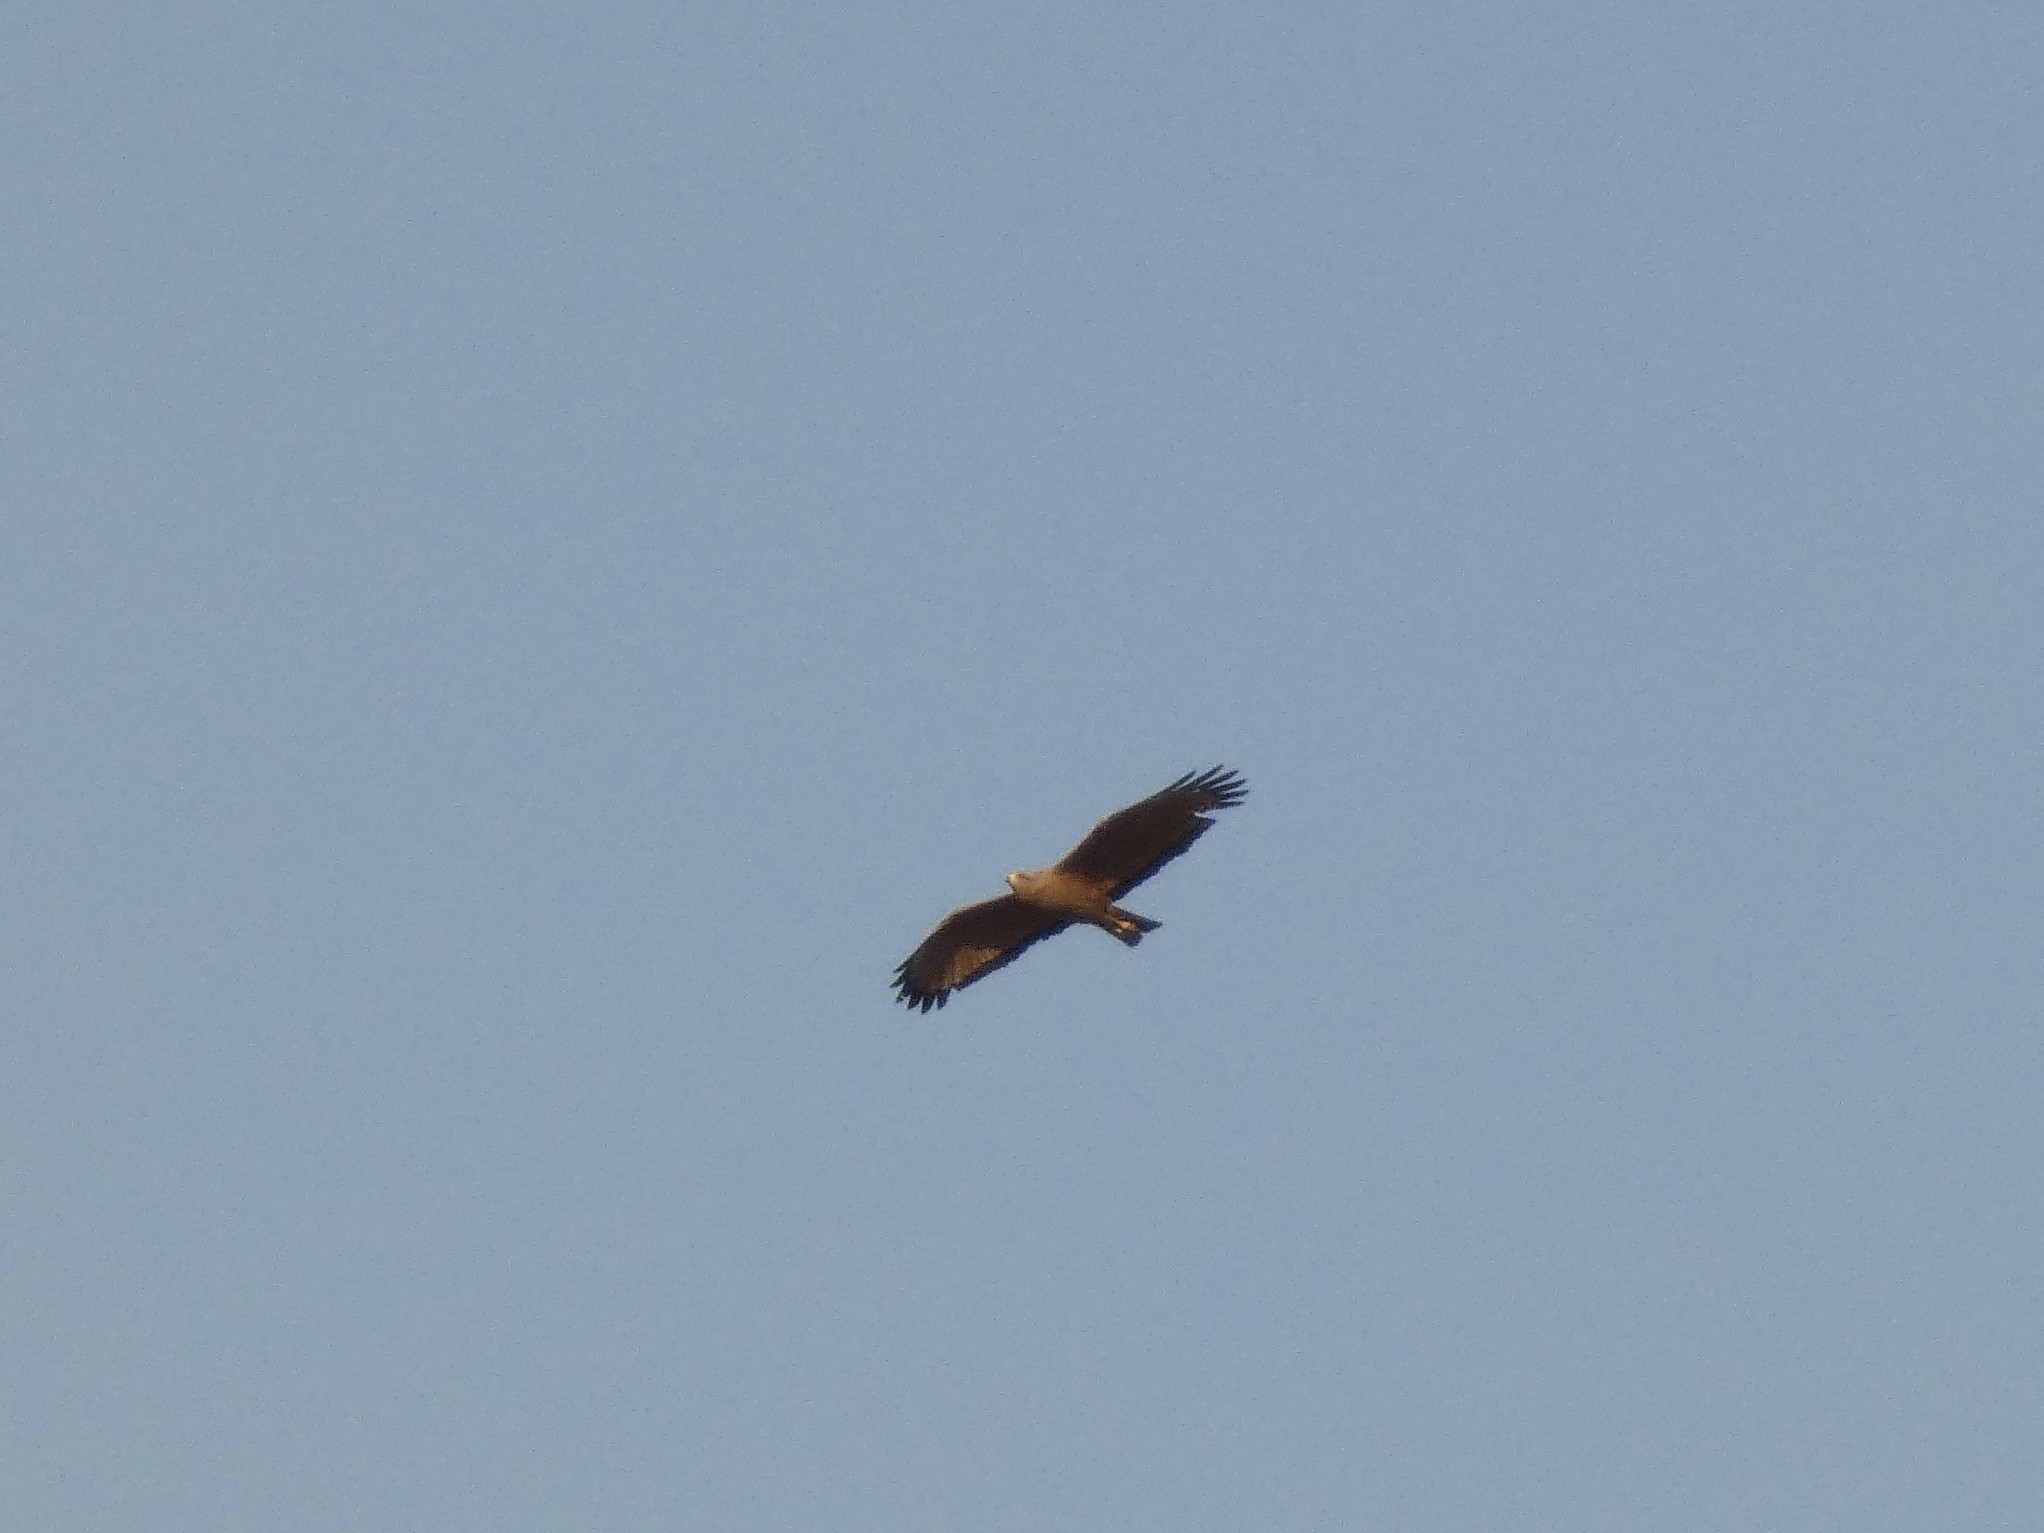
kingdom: Animalia
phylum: Chordata
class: Aves
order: Accipitriformes
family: Accipitridae
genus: Buteogallus
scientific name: Buteogallus meridionalis
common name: Savanna hawk
